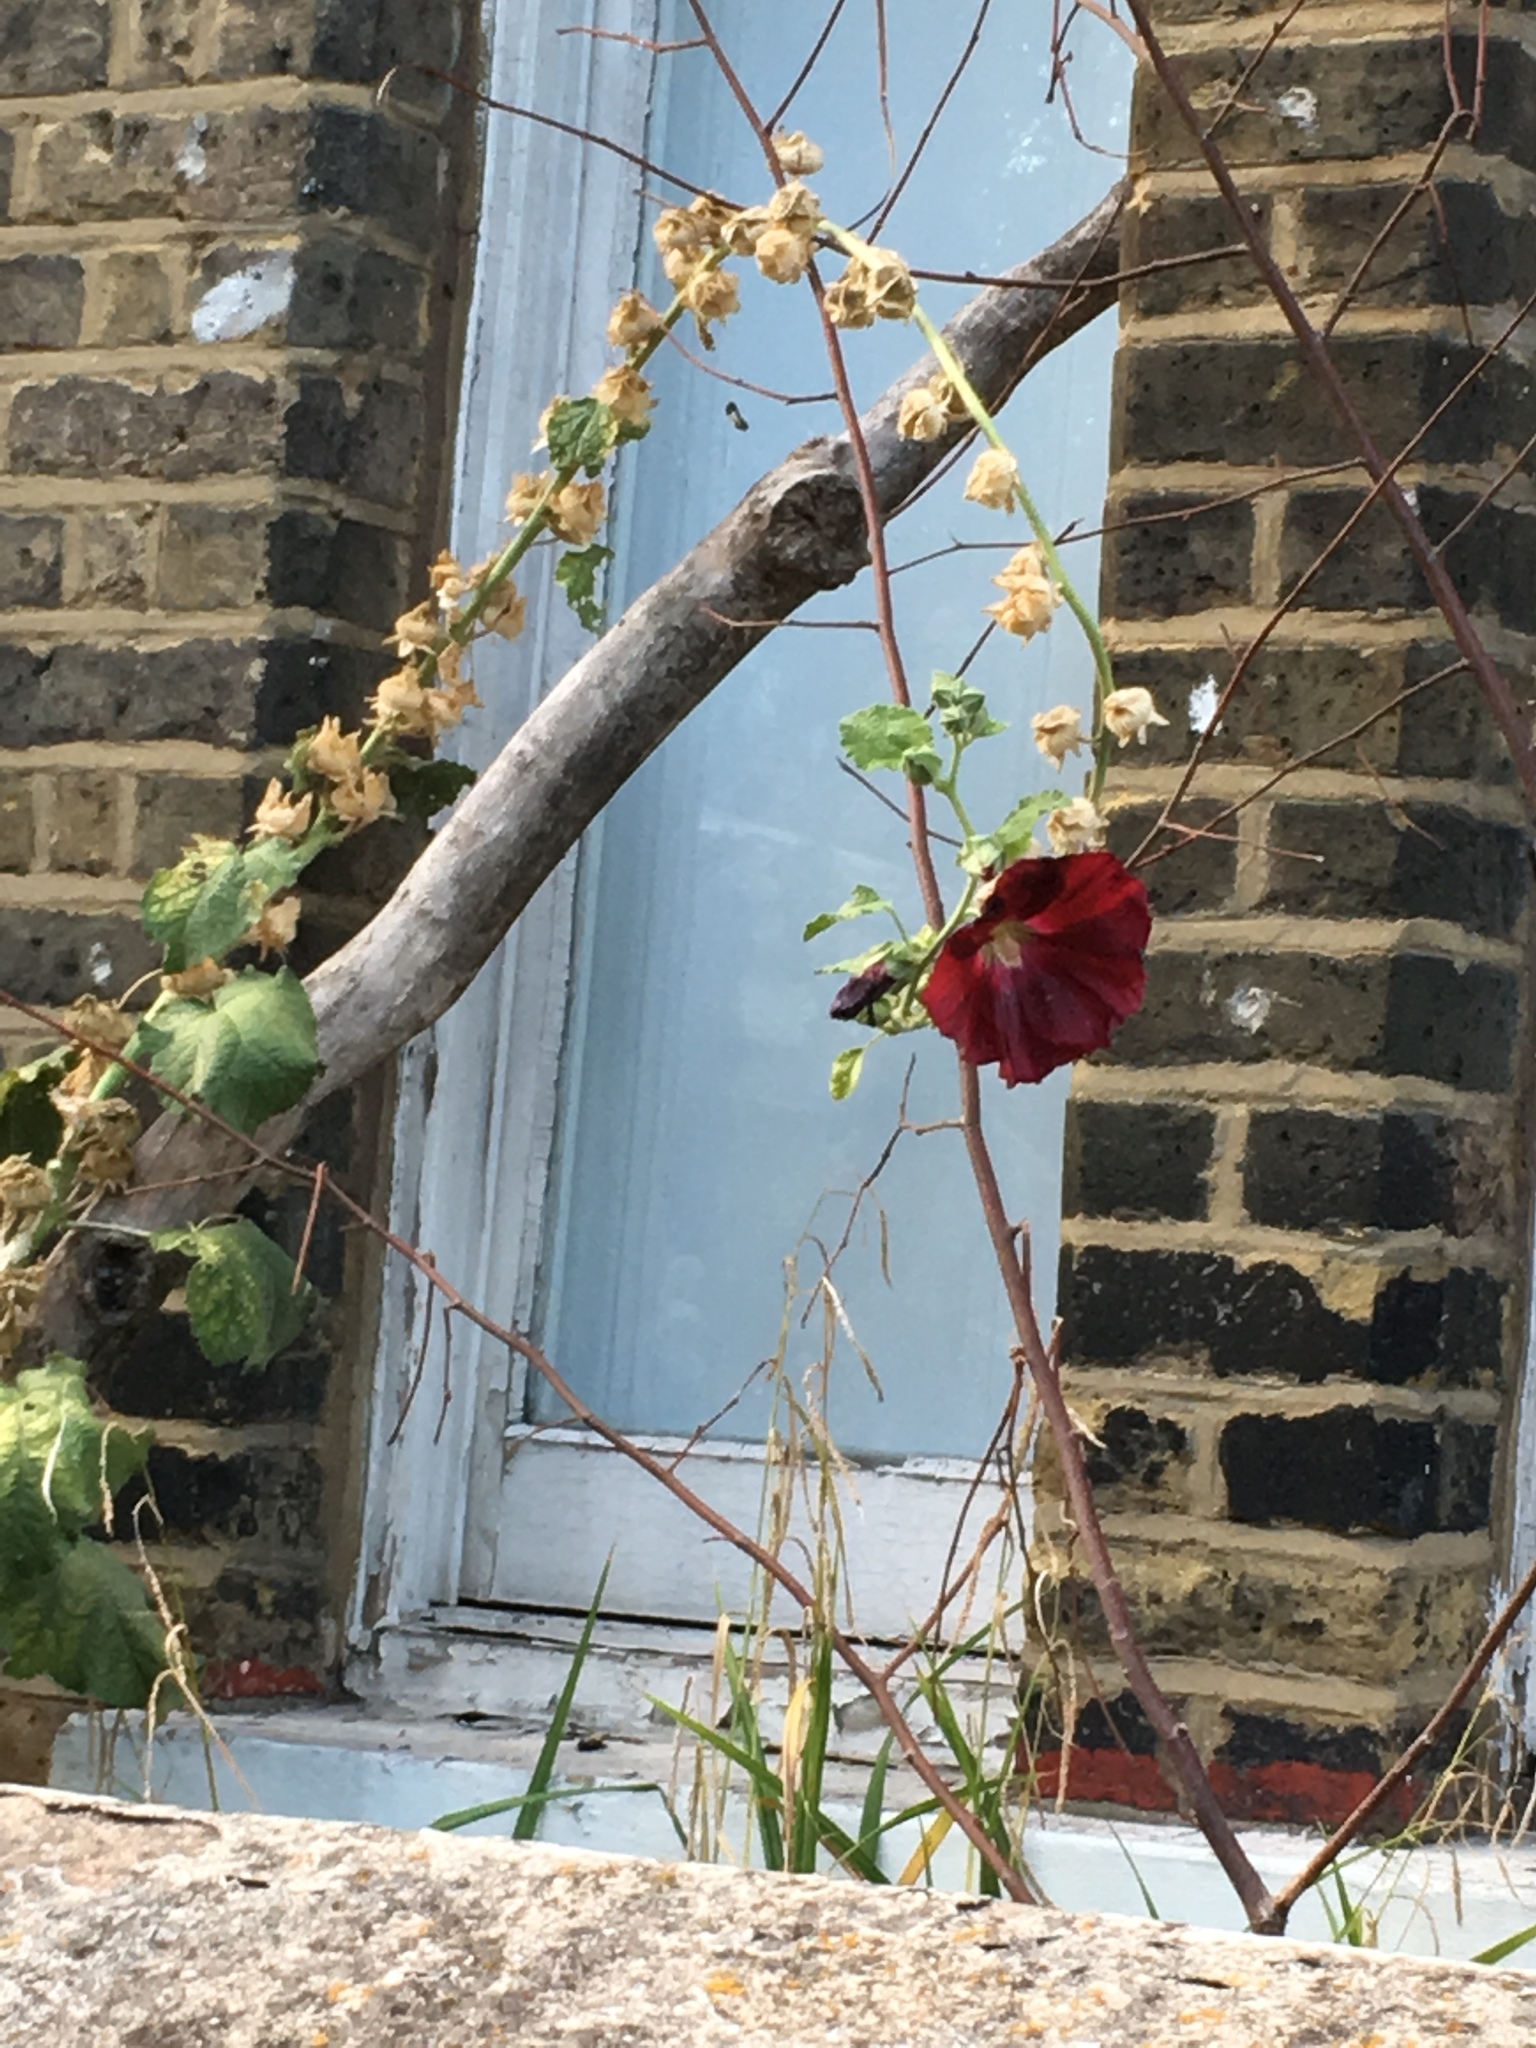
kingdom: Plantae
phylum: Tracheophyta
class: Magnoliopsida
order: Malvales
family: Malvaceae
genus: Alcea
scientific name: Alcea rosea
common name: Hollyhock
